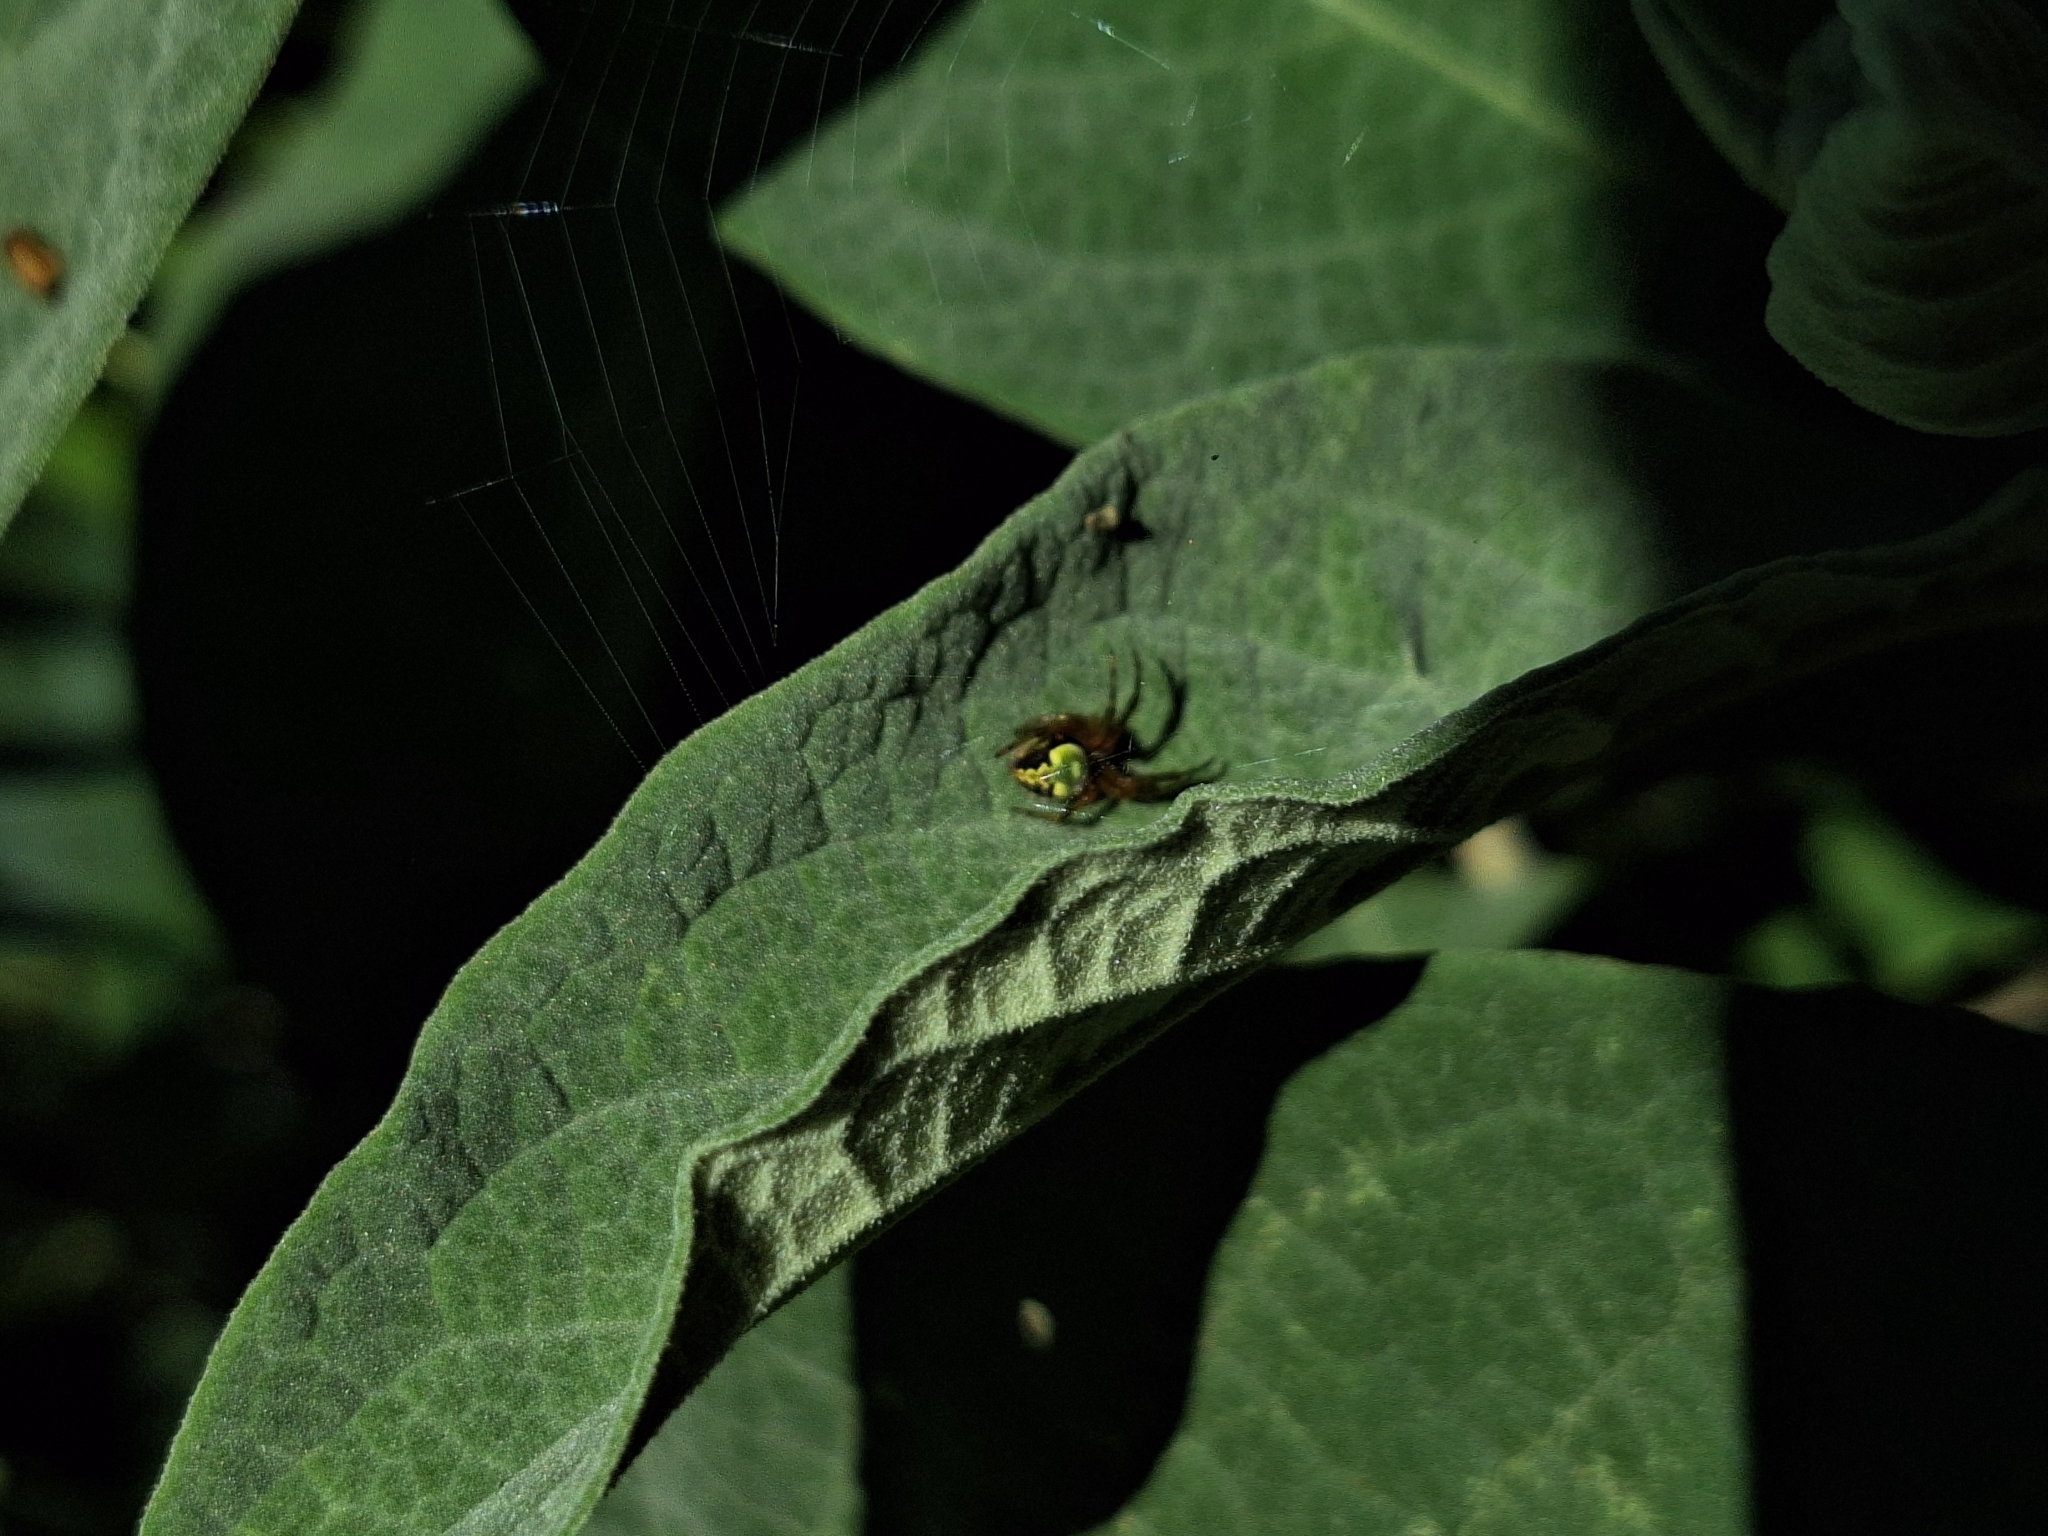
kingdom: Animalia
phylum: Arthropoda
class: Arachnida
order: Araneae
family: Araneidae
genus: Araneus
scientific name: Araneus workmani
